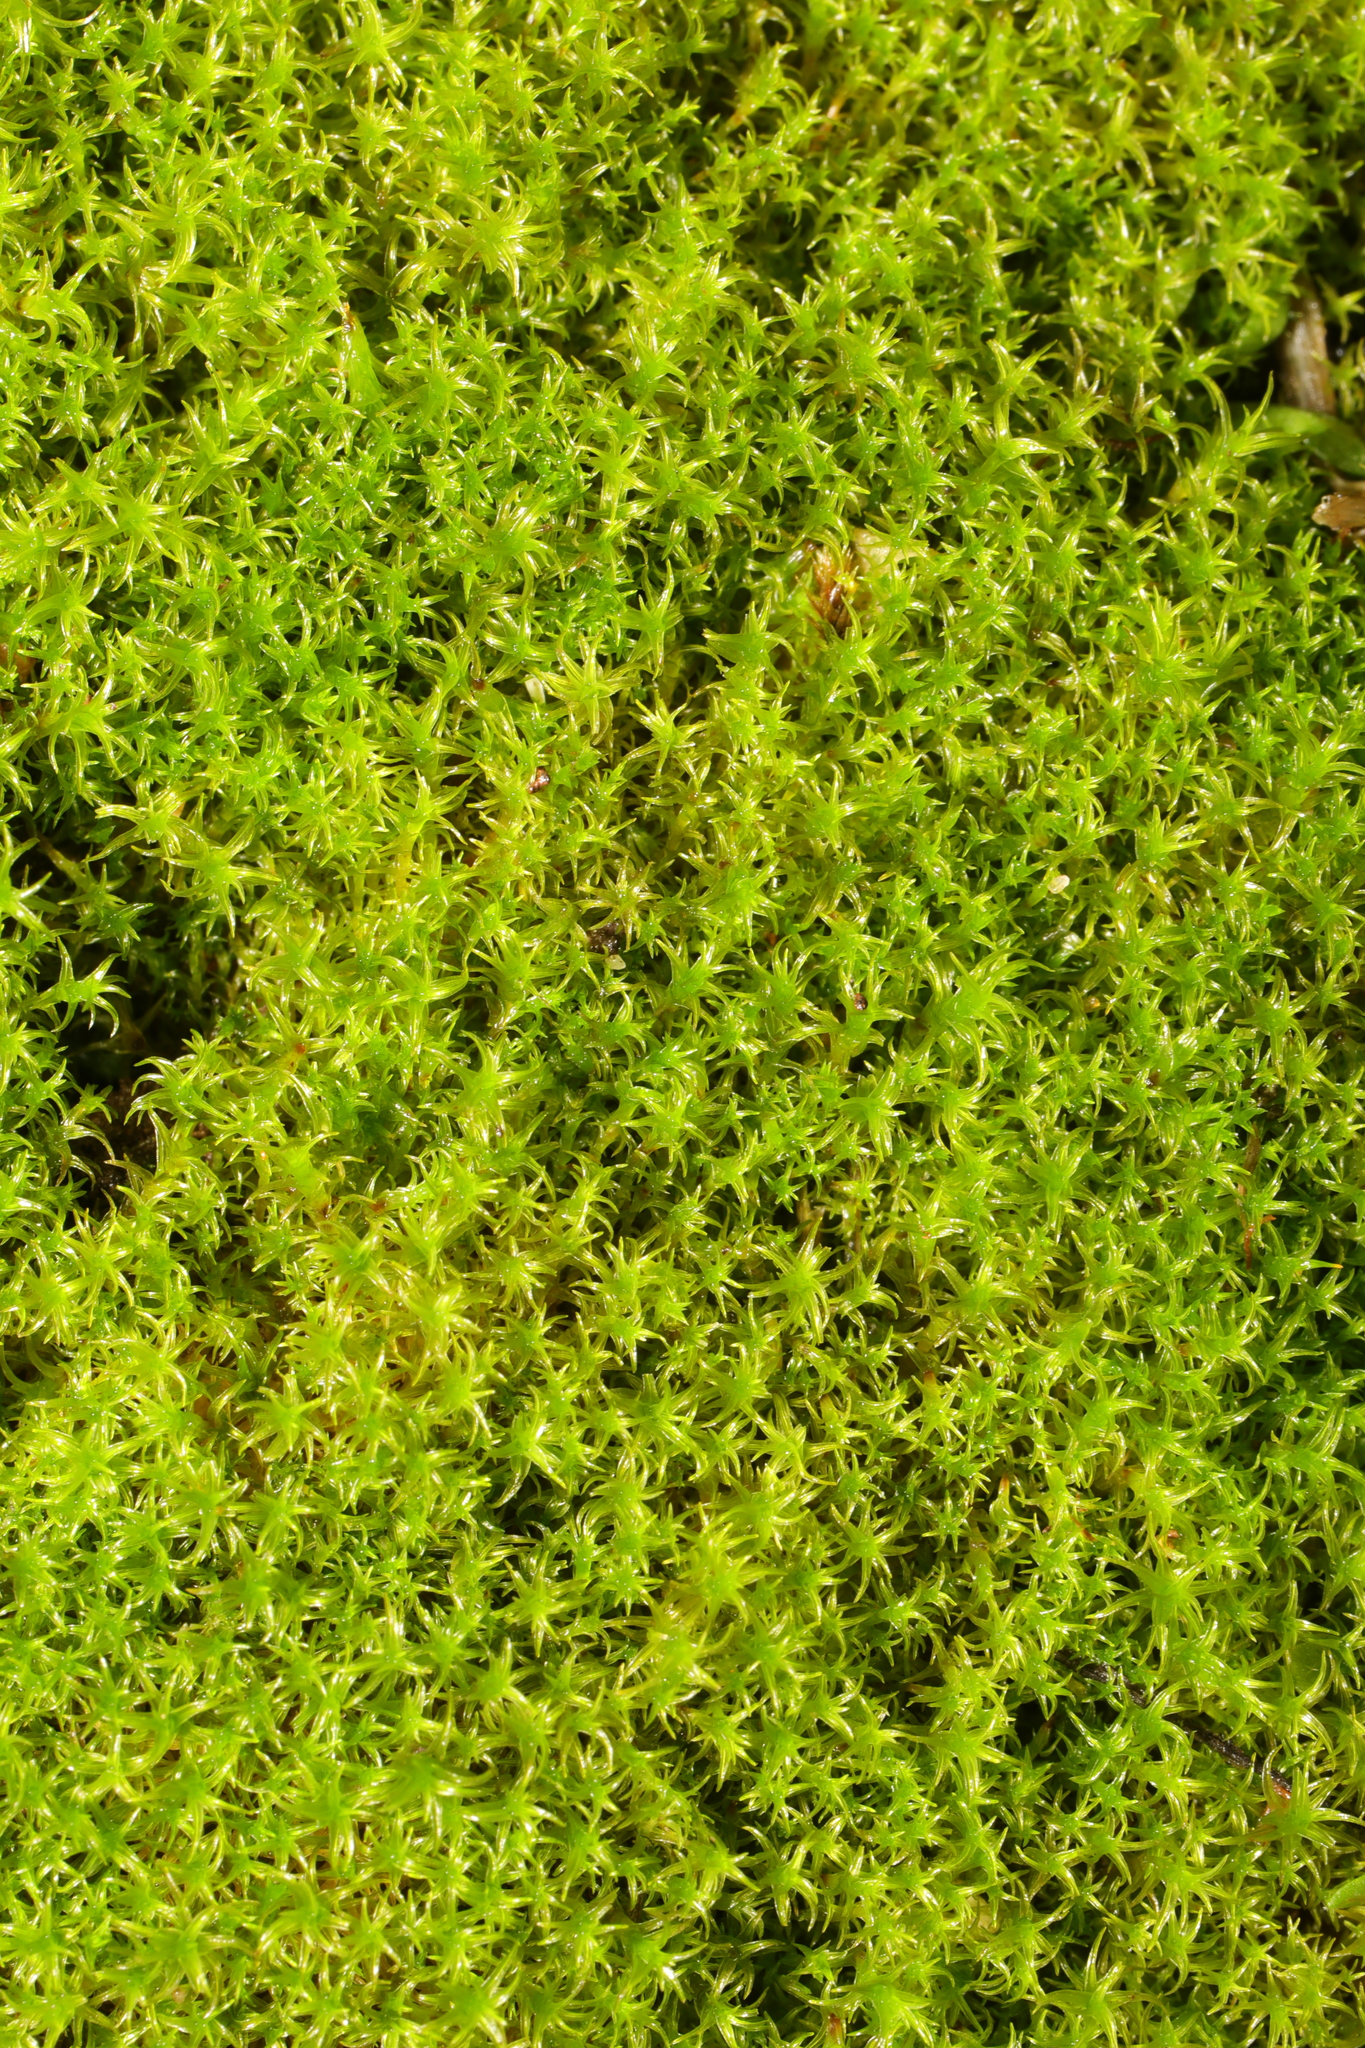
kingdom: Plantae
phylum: Bryophyta
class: Bryopsida
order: Pottiales
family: Pottiaceae
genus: Vinealobryum
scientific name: Vinealobryum insulanum
